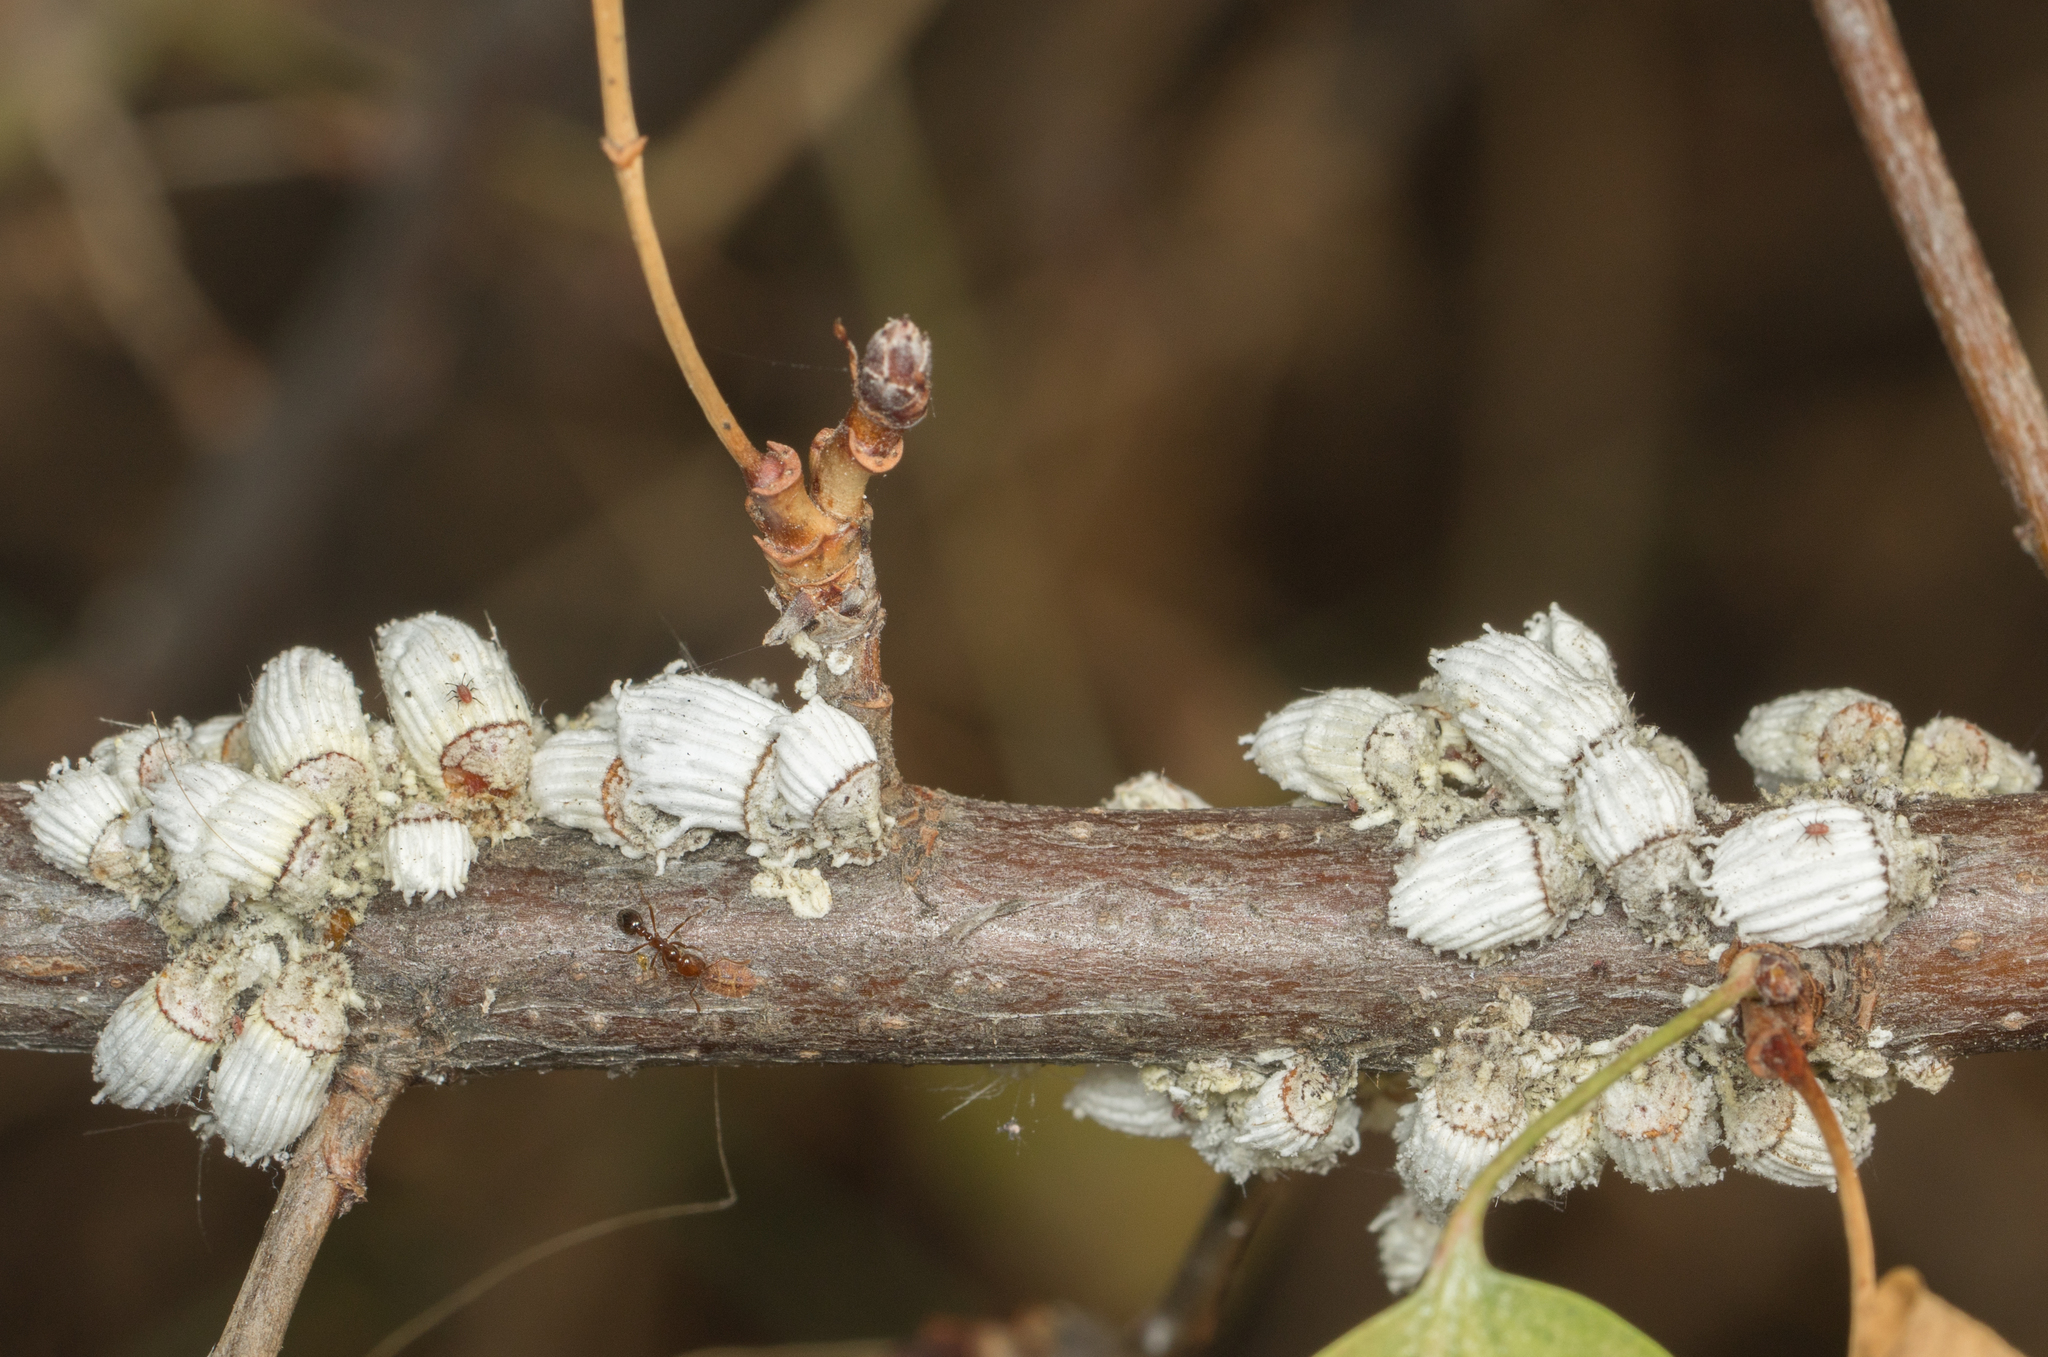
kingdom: Animalia
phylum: Arthropoda
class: Insecta
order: Hemiptera
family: Margarodidae
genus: Icerya
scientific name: Icerya purchasi
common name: Cottony cushion scale
